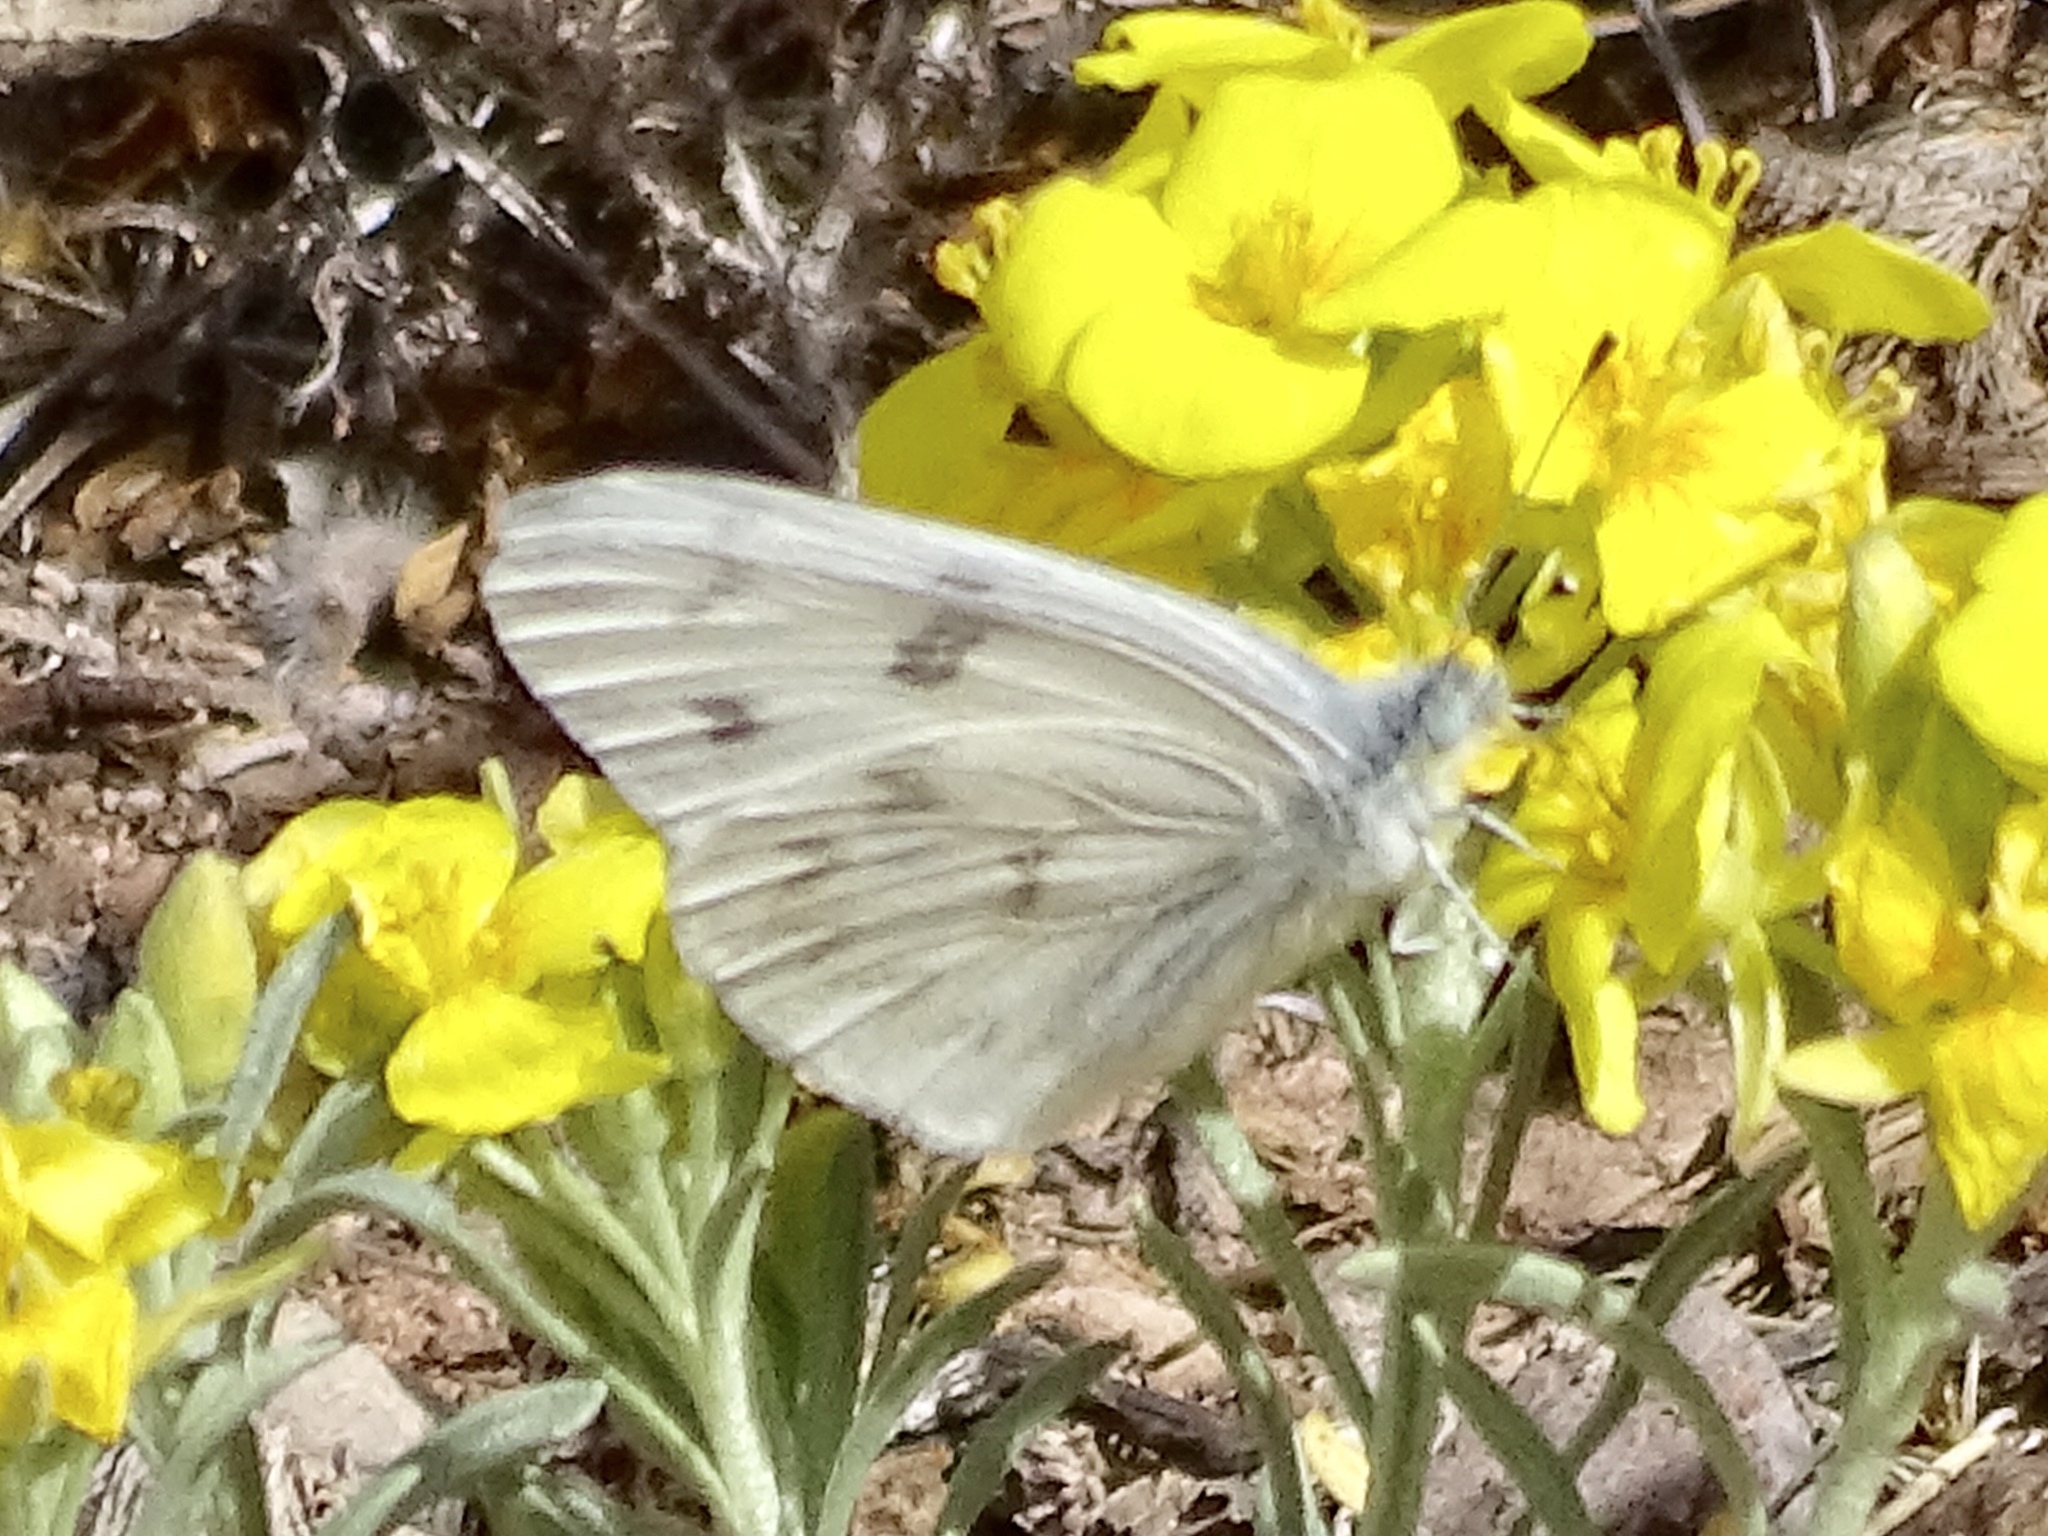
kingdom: Animalia
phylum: Arthropoda
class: Insecta
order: Lepidoptera
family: Pieridae
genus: Pontia
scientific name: Pontia protodice
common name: Checkered white
